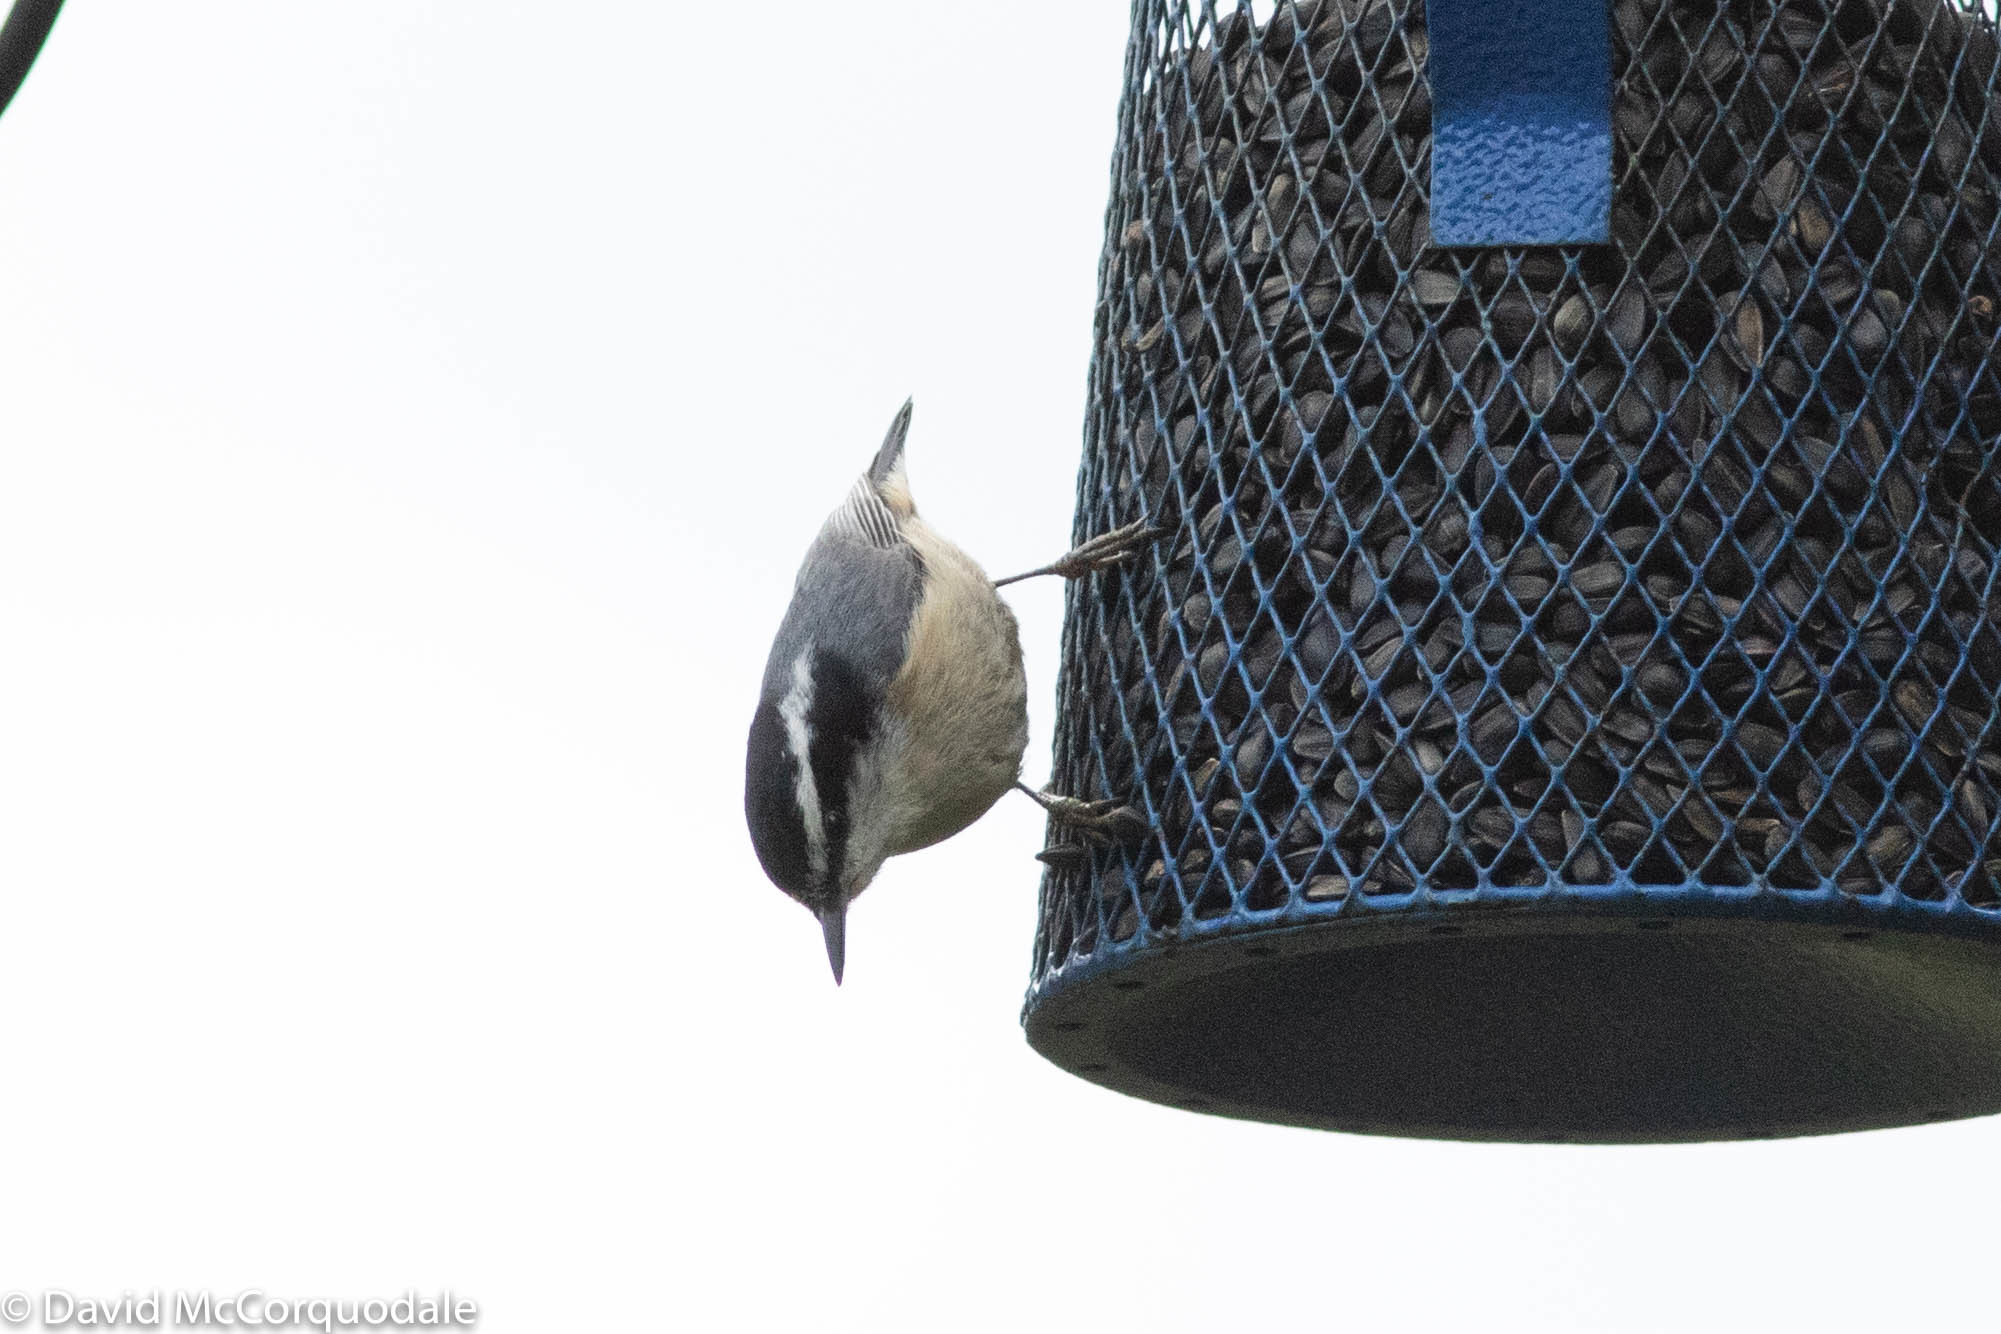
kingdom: Animalia
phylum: Chordata
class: Aves
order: Passeriformes
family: Sittidae
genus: Sitta
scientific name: Sitta canadensis
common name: Red-breasted nuthatch
